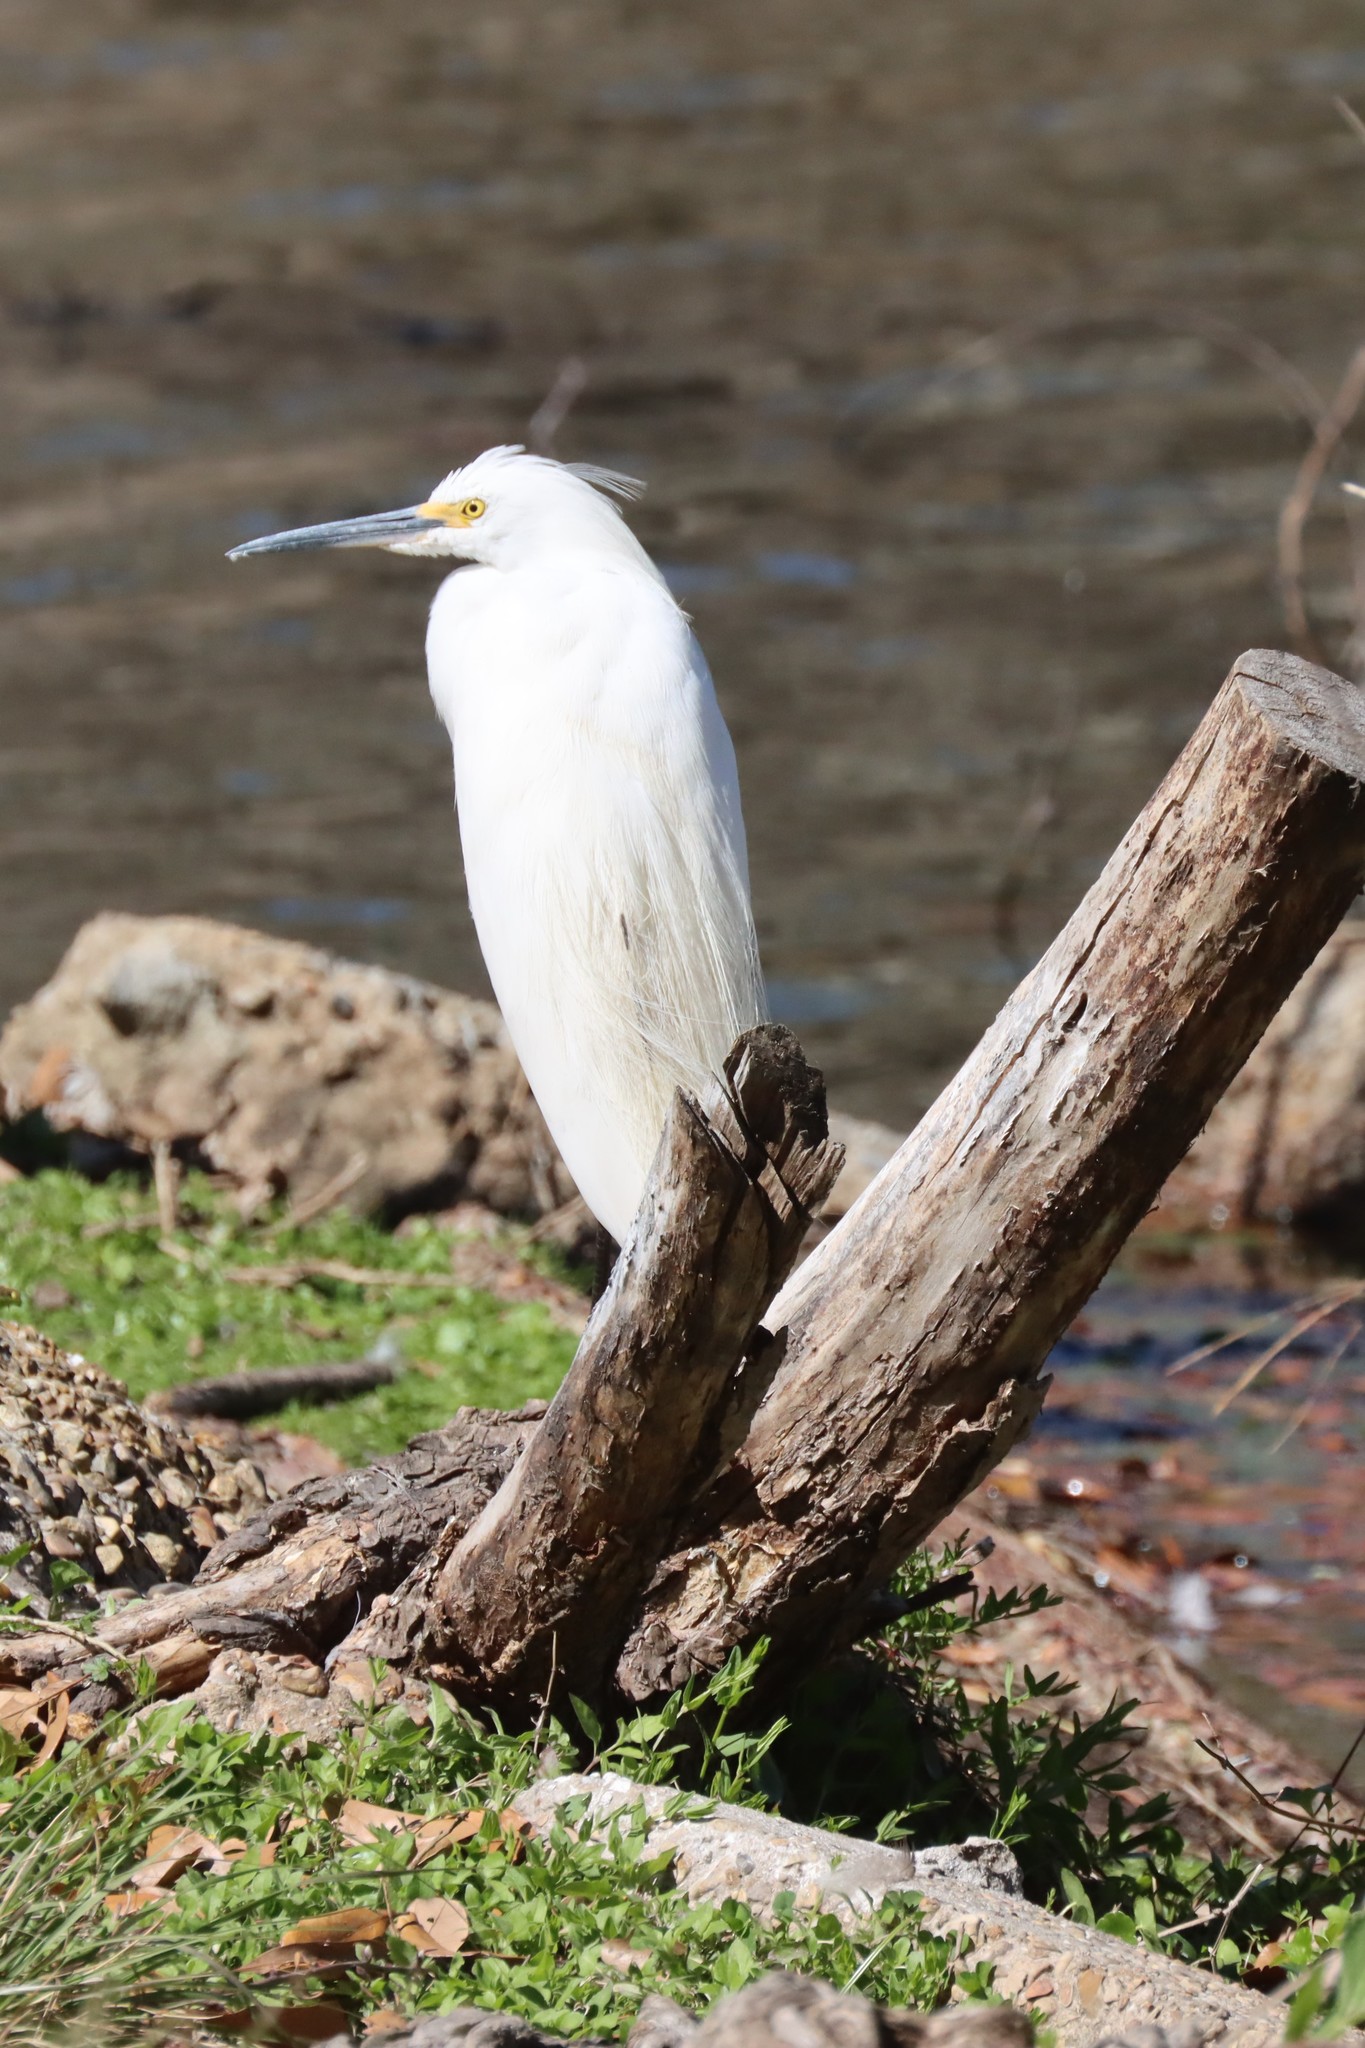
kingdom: Animalia
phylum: Chordata
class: Aves
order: Pelecaniformes
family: Ardeidae
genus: Egretta
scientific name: Egretta thula
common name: Snowy egret
